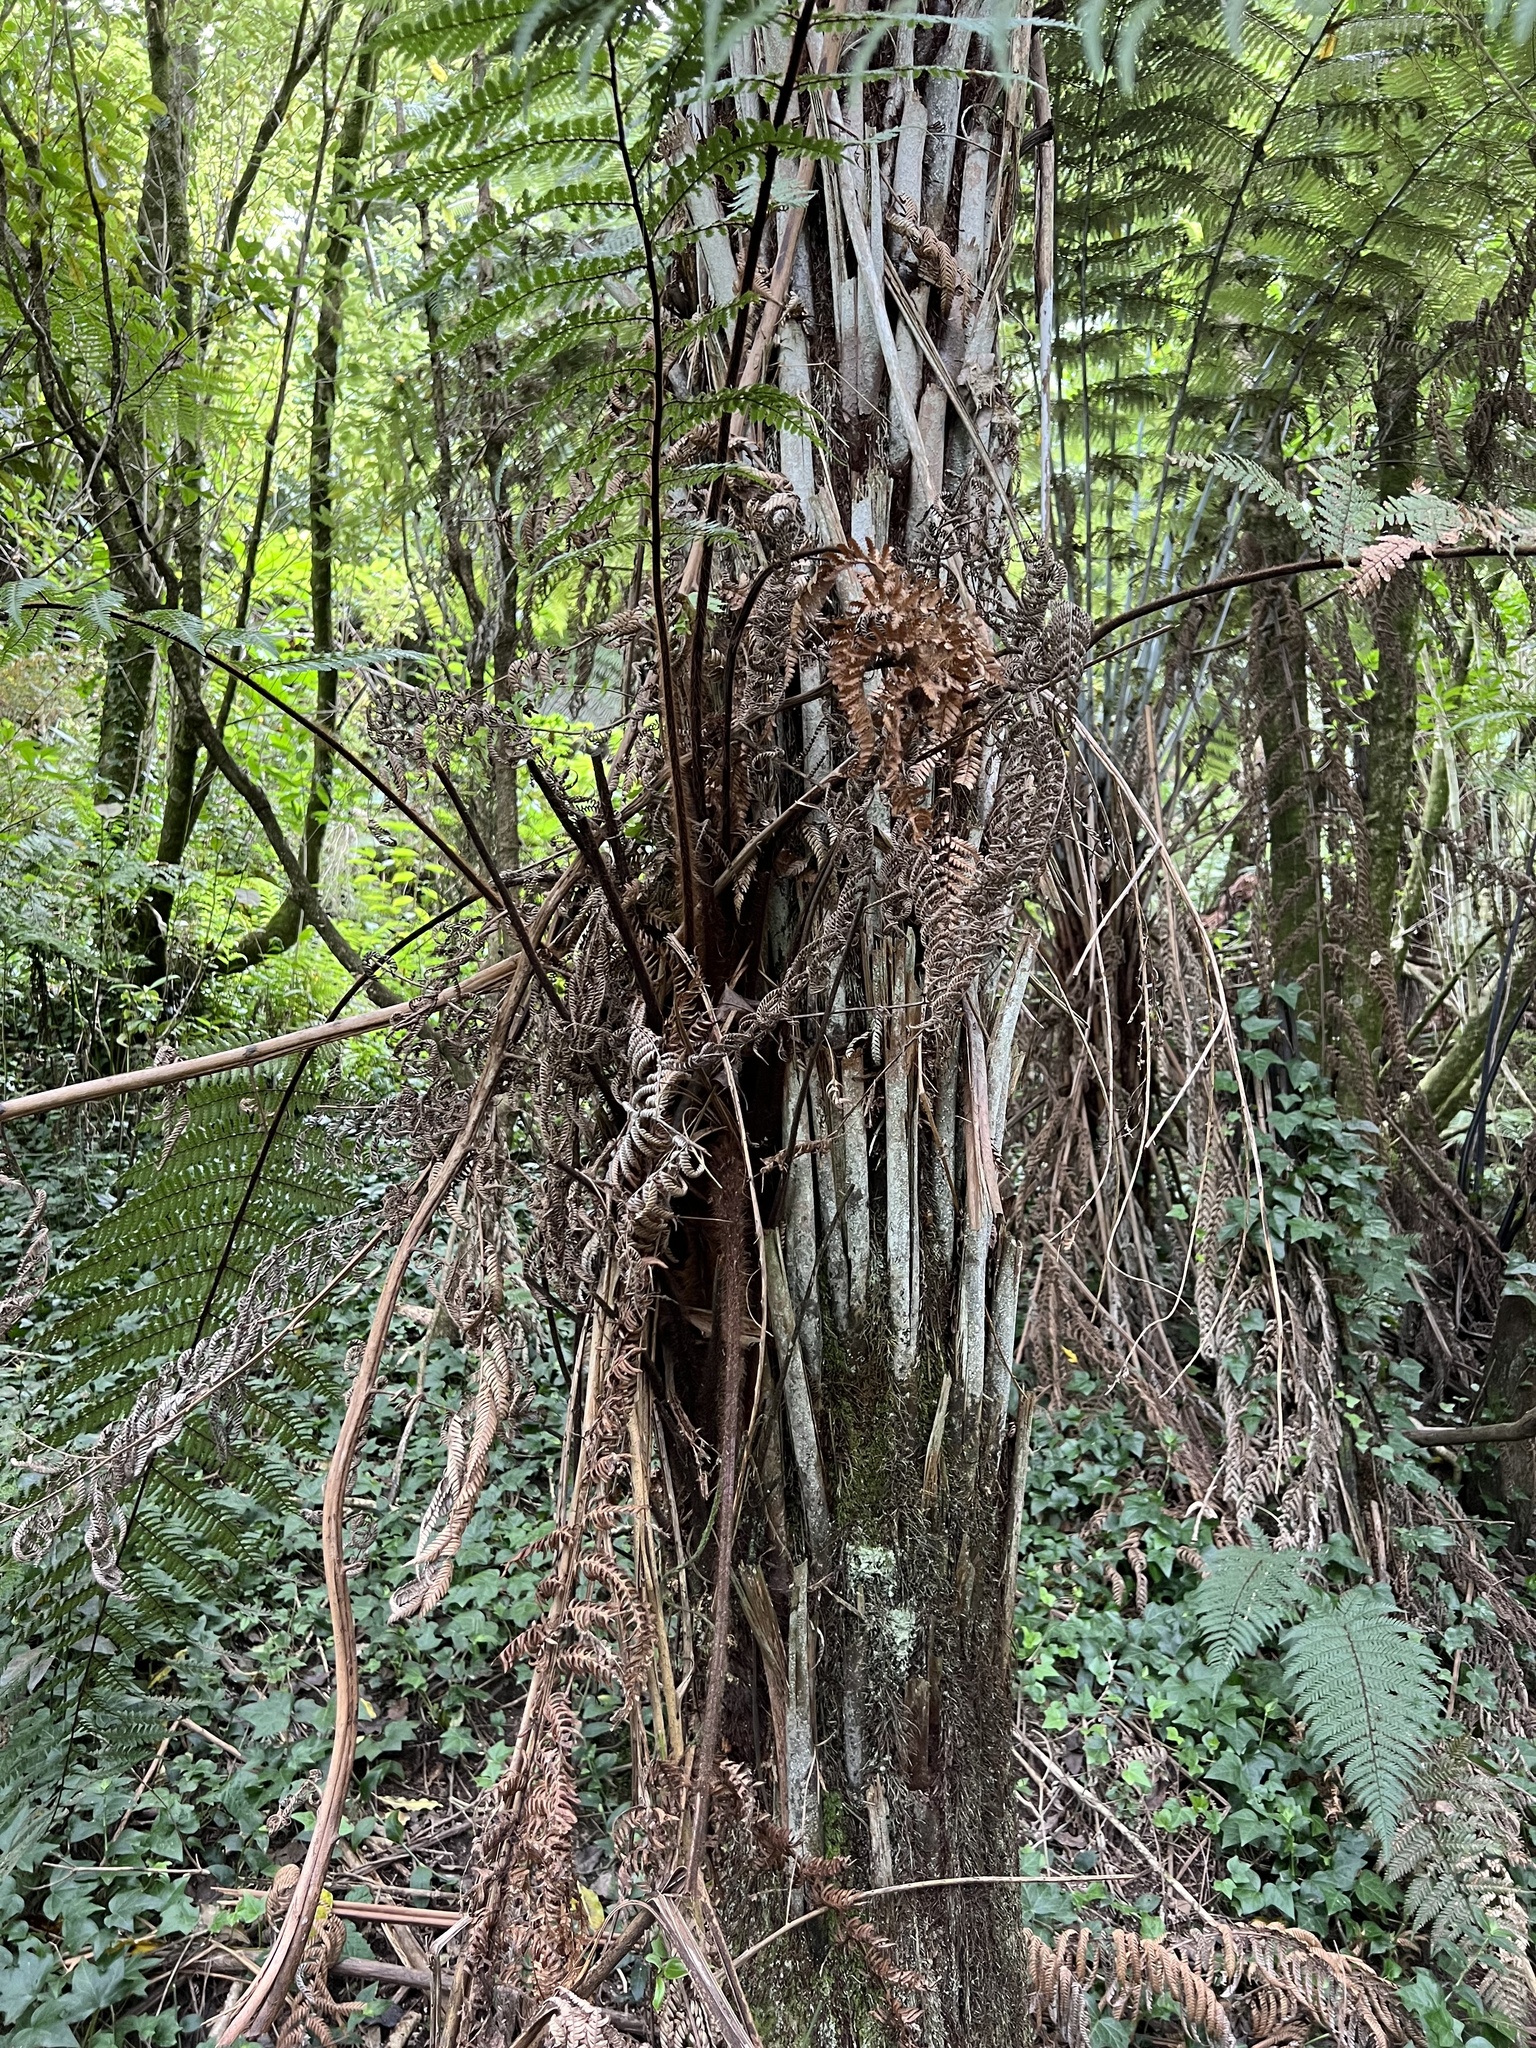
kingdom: Plantae
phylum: Tracheophyta
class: Polypodiopsida
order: Cyatheales
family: Dicksoniaceae
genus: Dicksonia
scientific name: Dicksonia squarrosa
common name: Hard treefern
